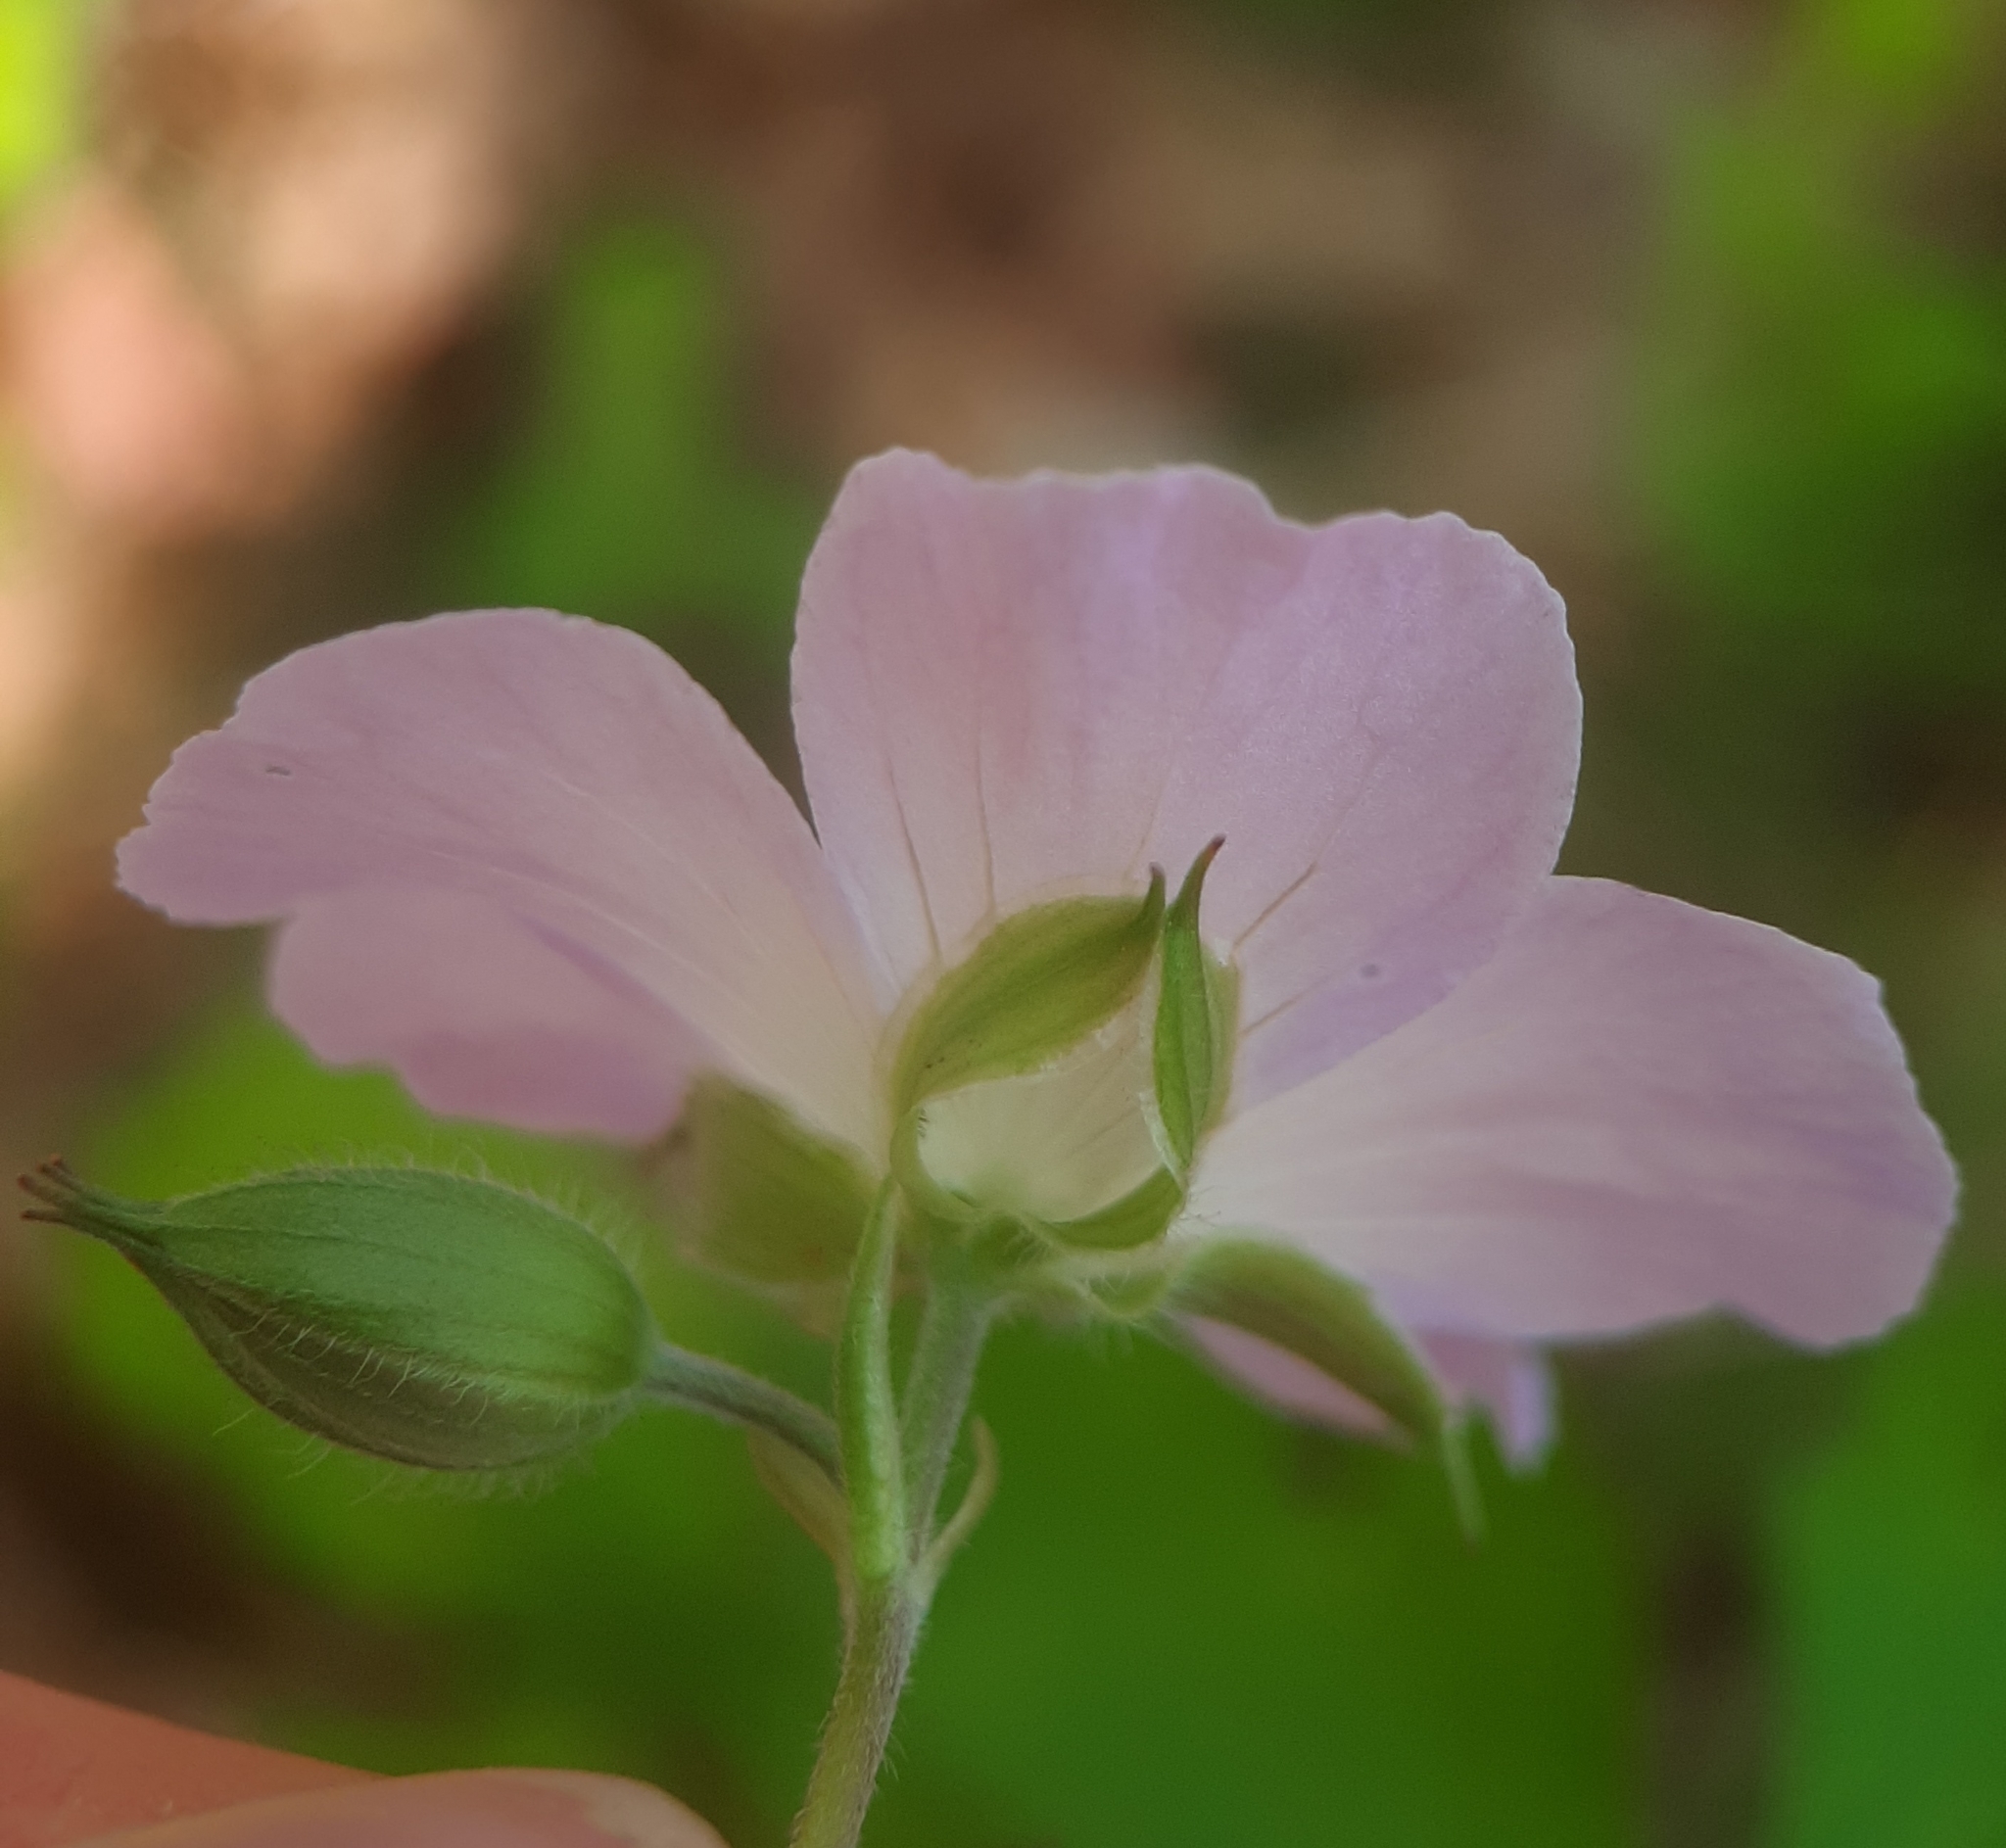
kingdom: Plantae
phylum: Tracheophyta
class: Magnoliopsida
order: Geraniales
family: Geraniaceae
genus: Geranium
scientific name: Geranium maculatum
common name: Spotted geranium
